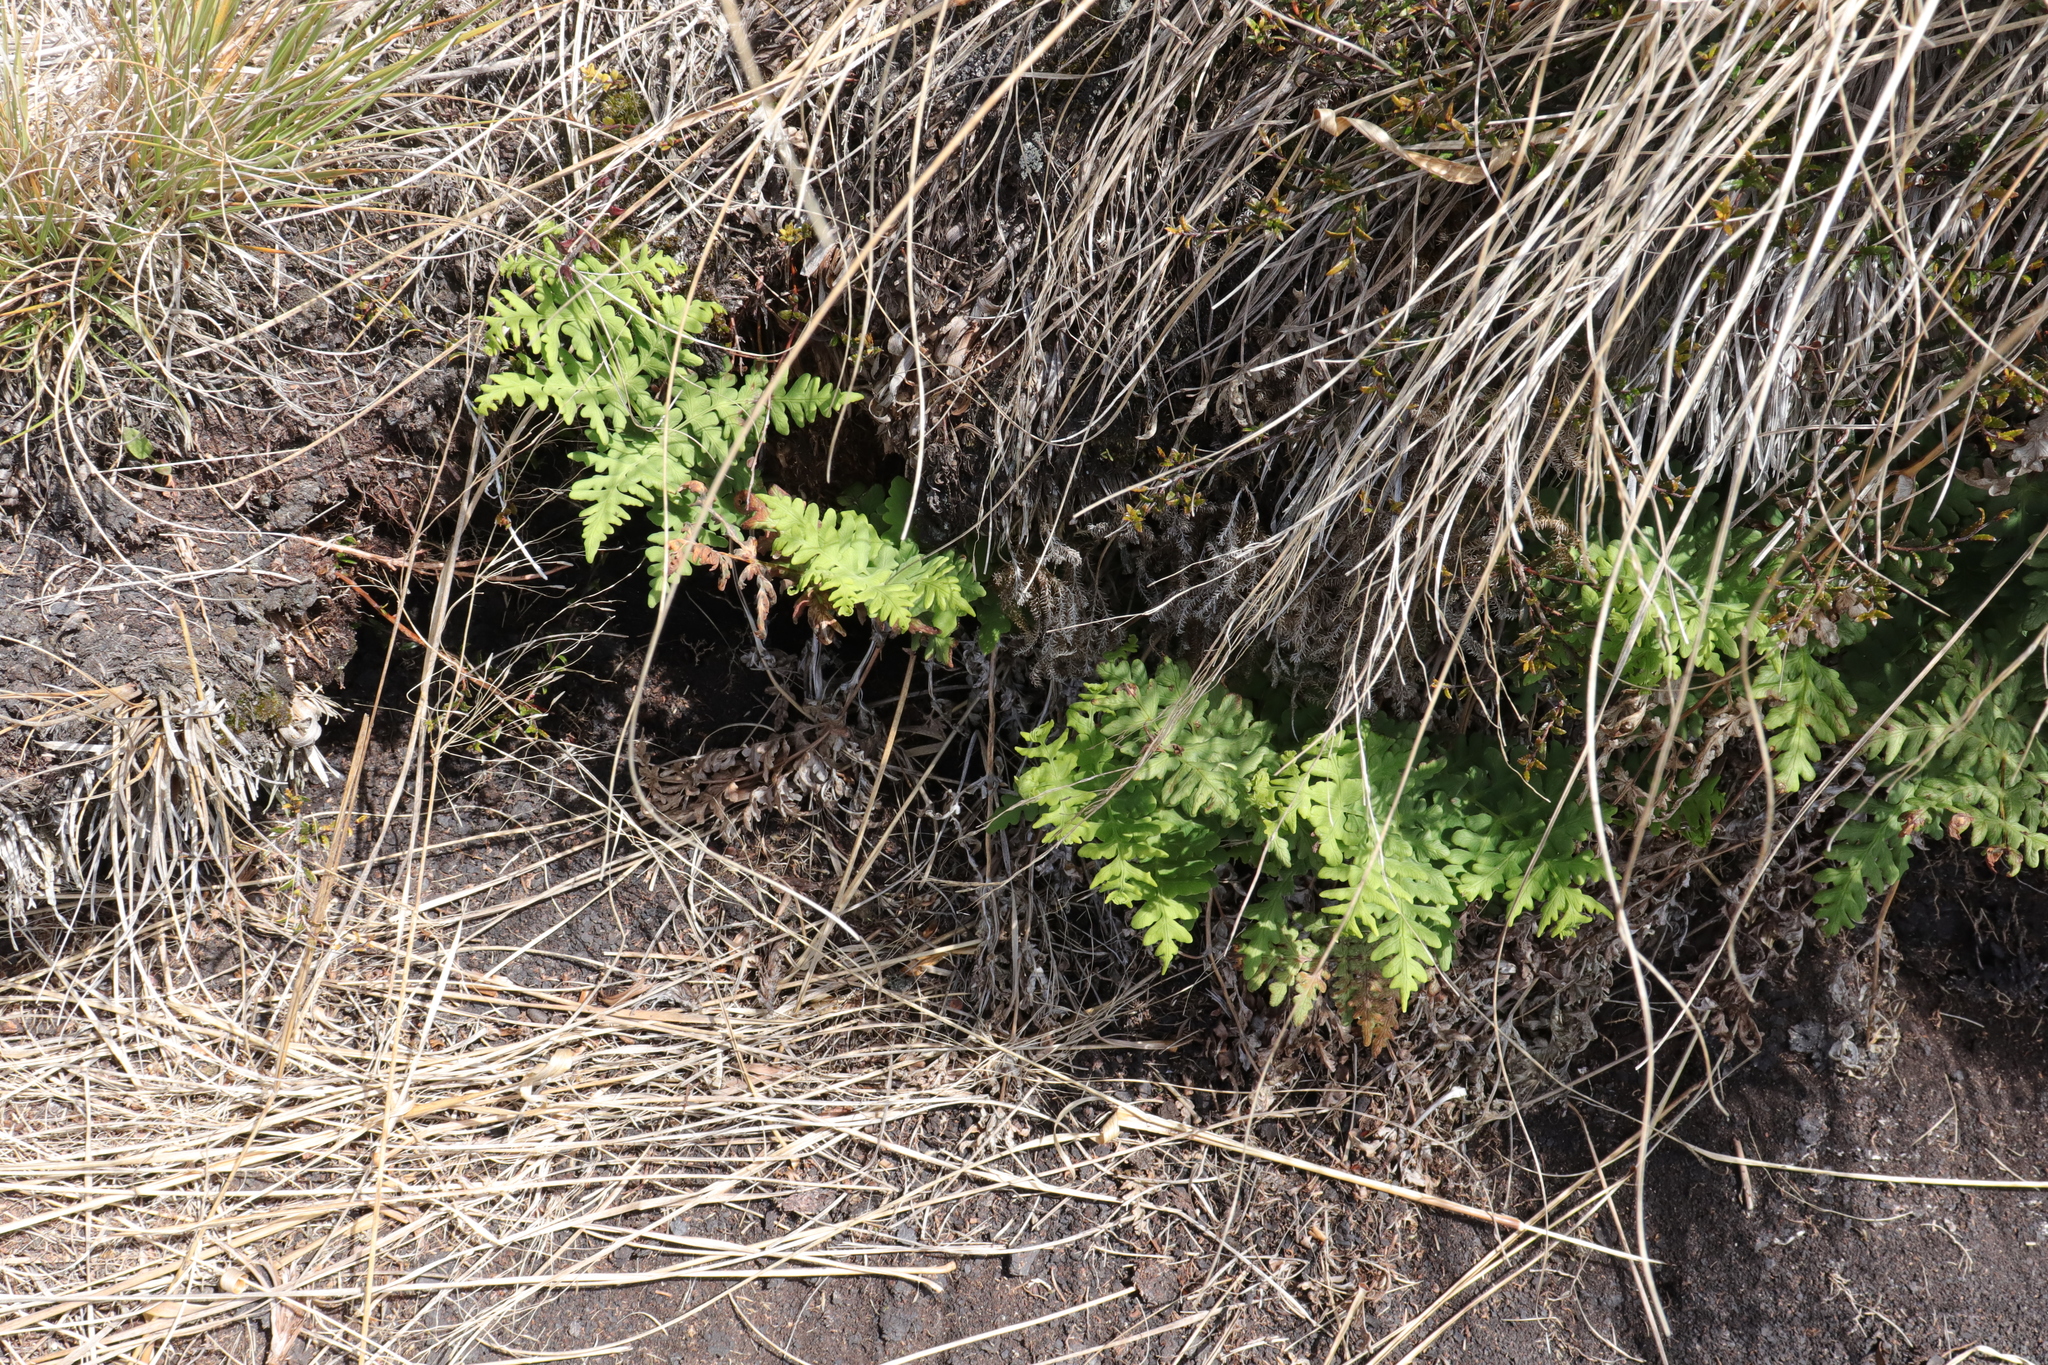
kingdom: Plantae
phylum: Tracheophyta
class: Polypodiopsida
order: Polypodiales
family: Dennstaedtiaceae
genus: Histiopteris
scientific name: Histiopteris incisa
